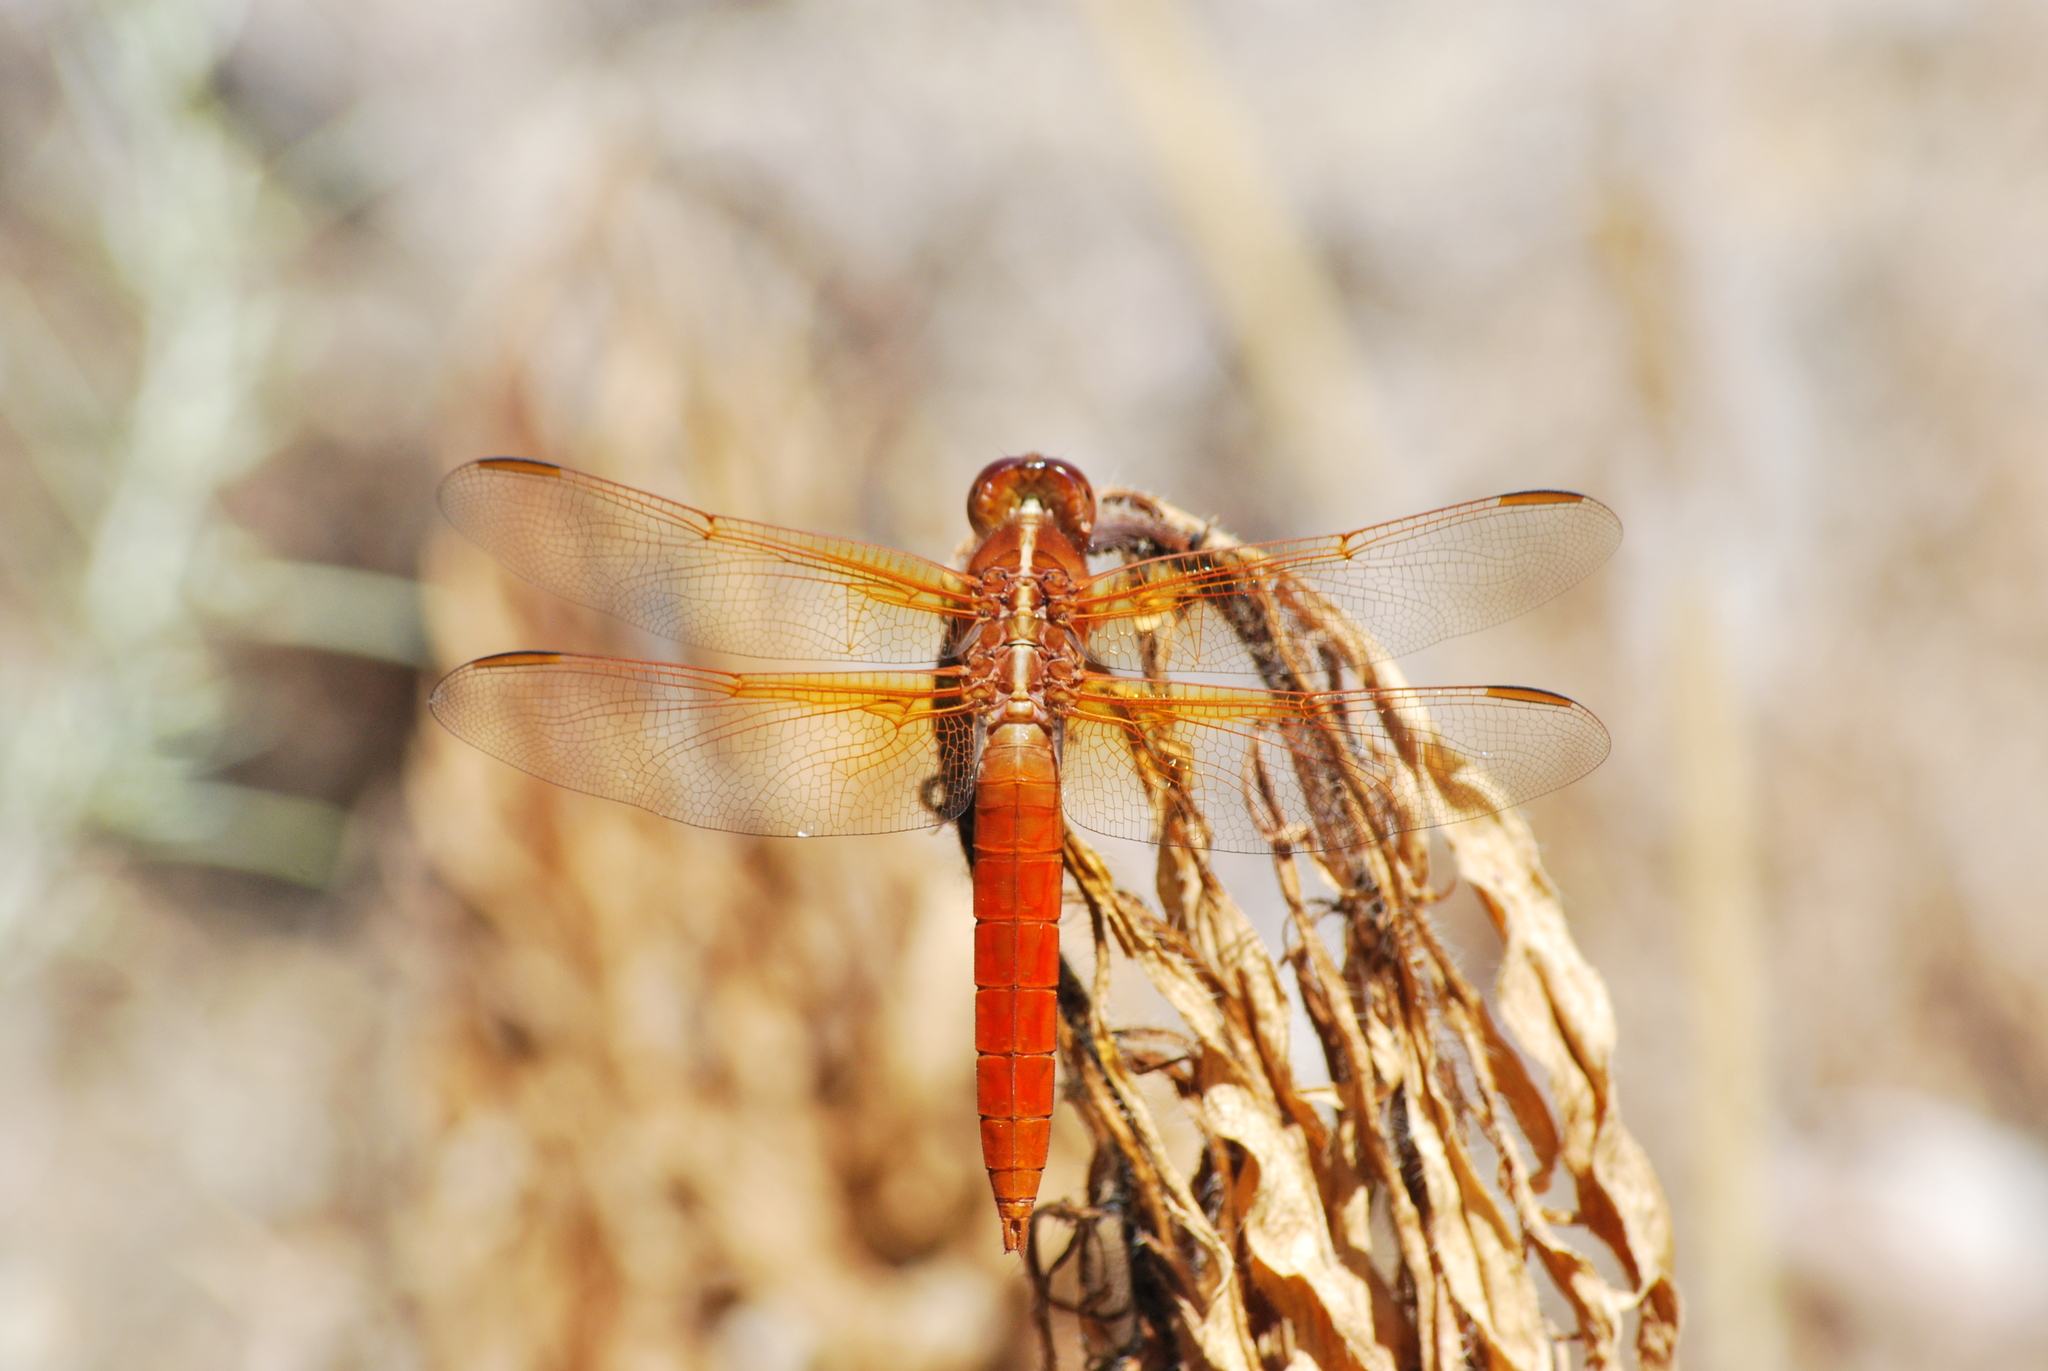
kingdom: Animalia
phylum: Arthropoda
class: Insecta
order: Odonata
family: Libellulidae
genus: Libellula
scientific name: Libellula croceipennis
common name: Neon skimmer
